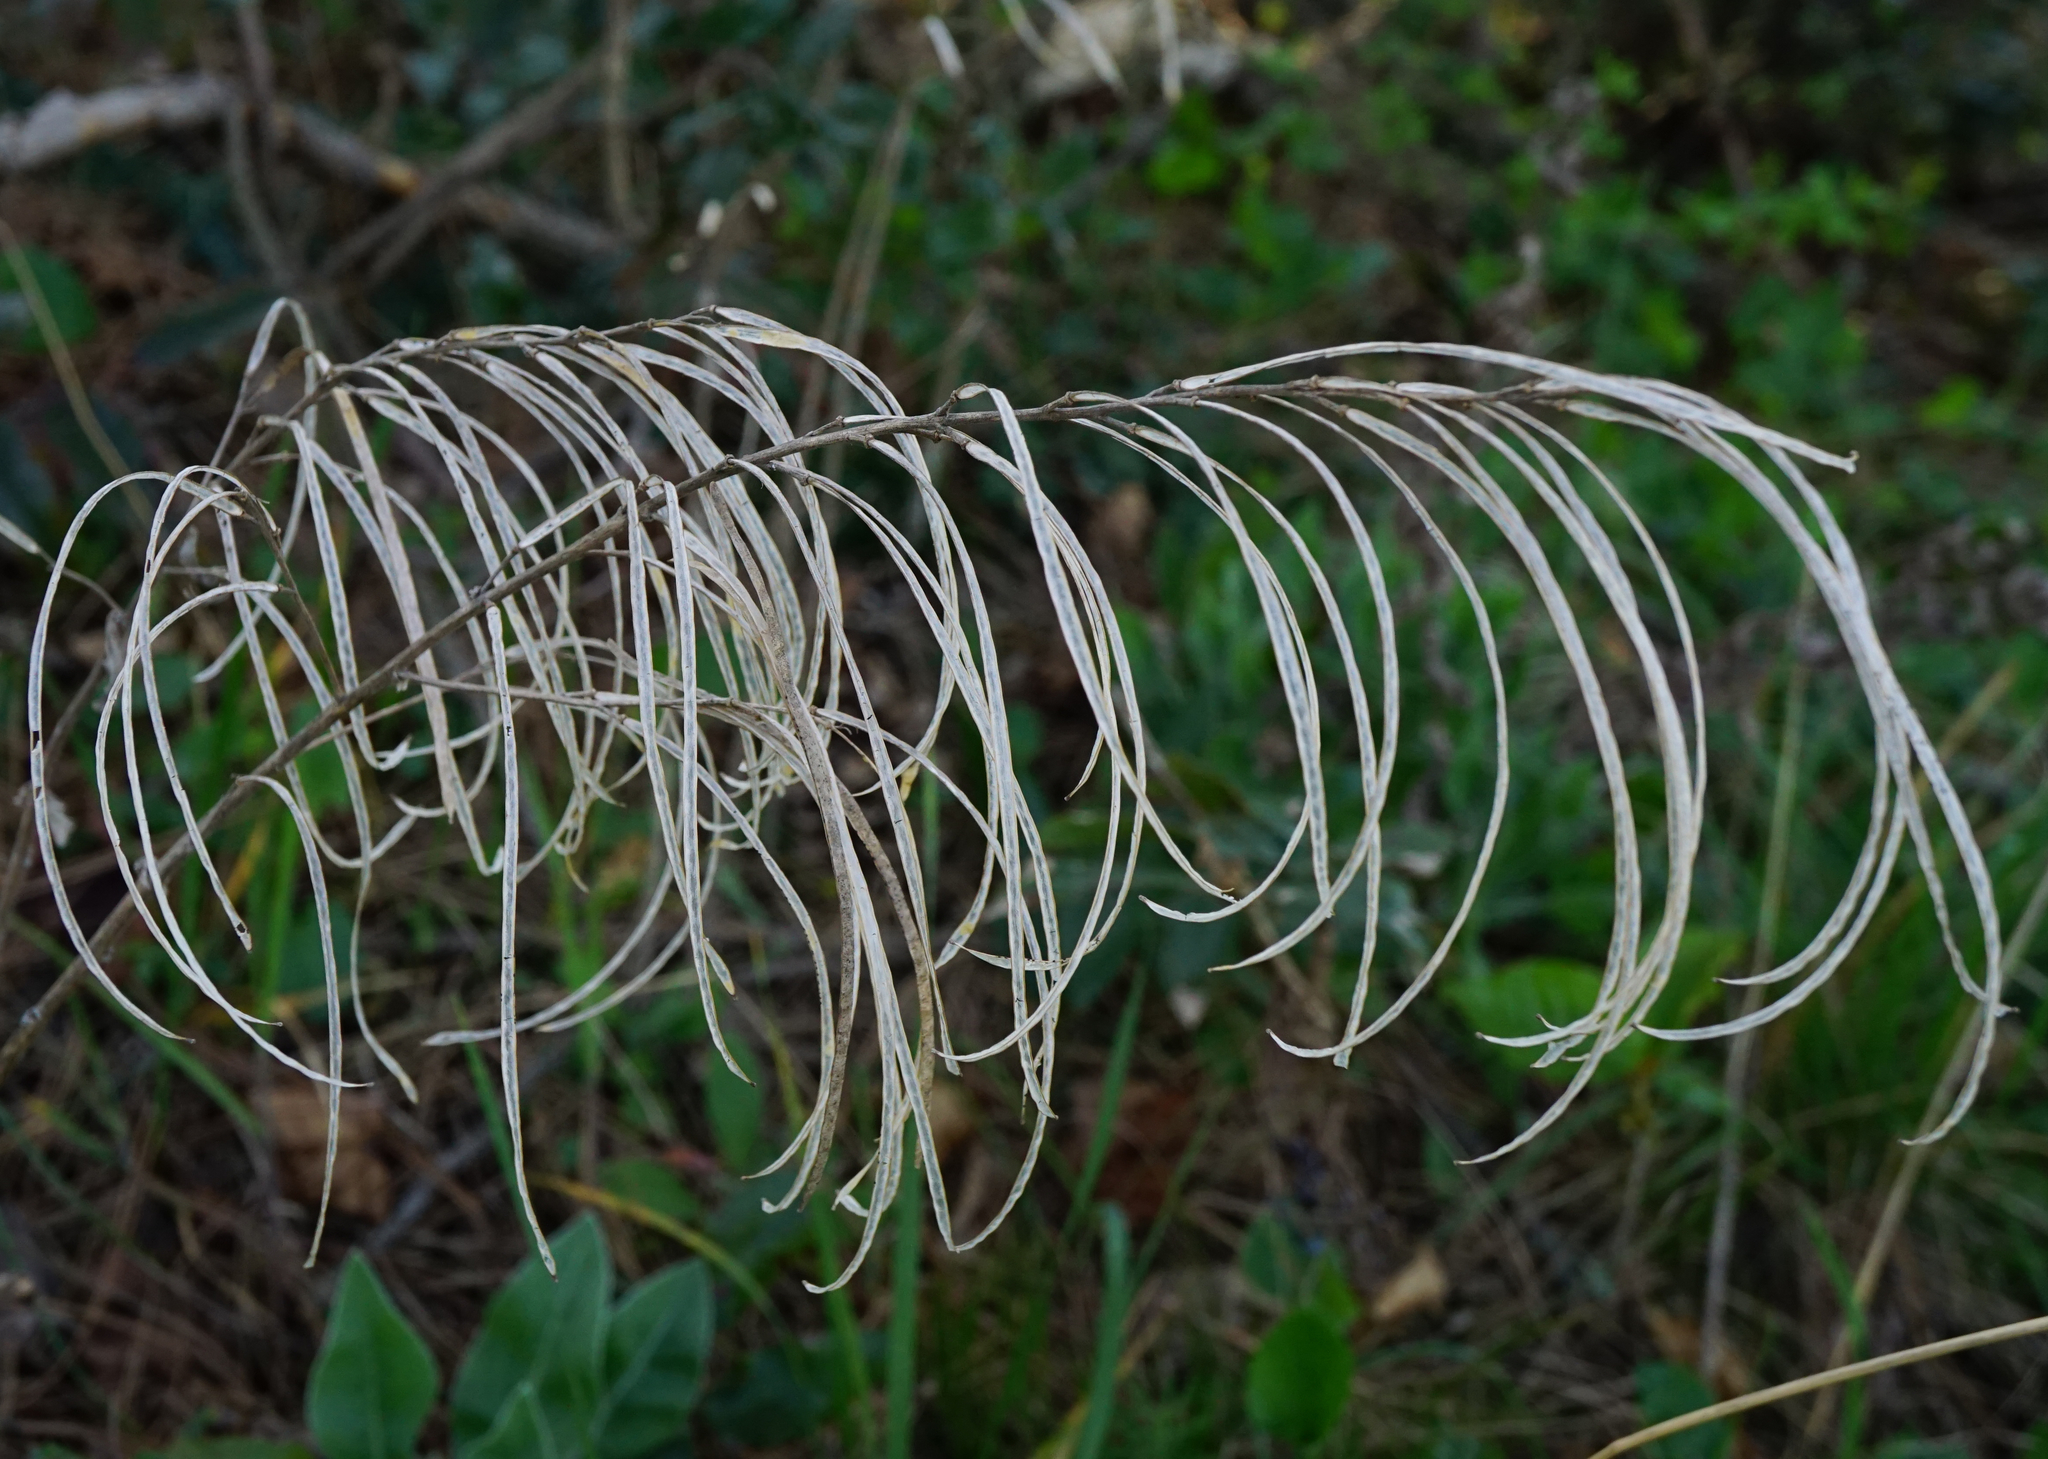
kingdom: Plantae
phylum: Tracheophyta
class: Magnoliopsida
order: Brassicales
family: Brassicaceae
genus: Pseudoturritis
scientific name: Pseudoturritis turrita
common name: Tower cress
